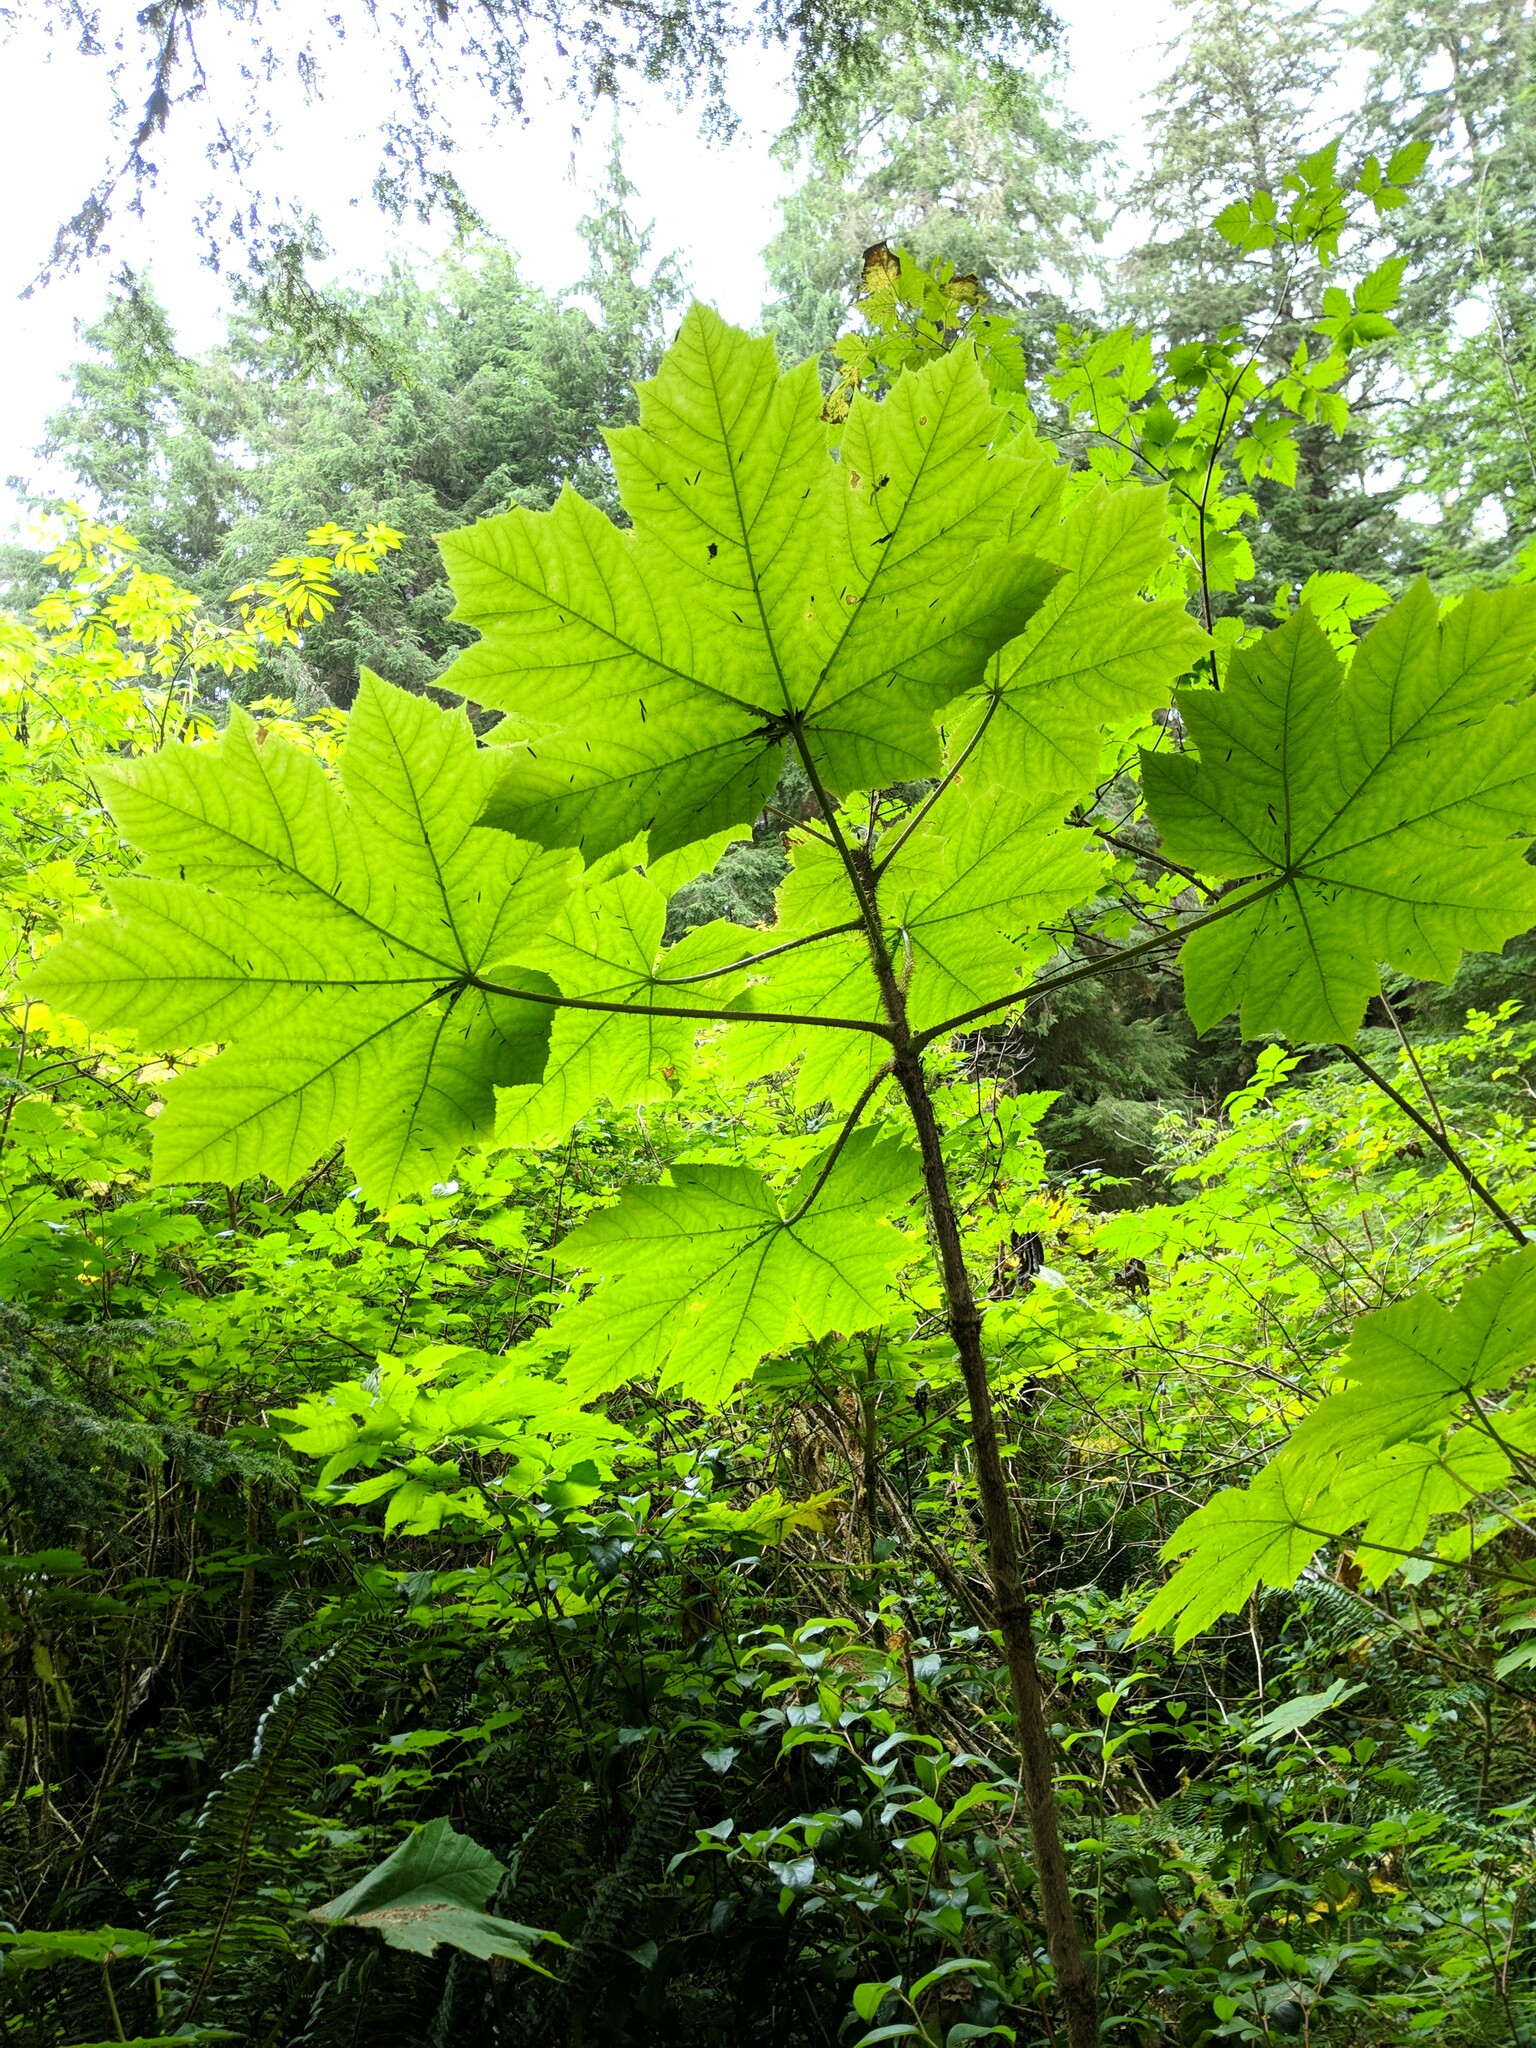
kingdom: Plantae
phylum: Tracheophyta
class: Magnoliopsida
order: Apiales
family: Araliaceae
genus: Oplopanax
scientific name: Oplopanax horridus
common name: Devil's walking-stick
